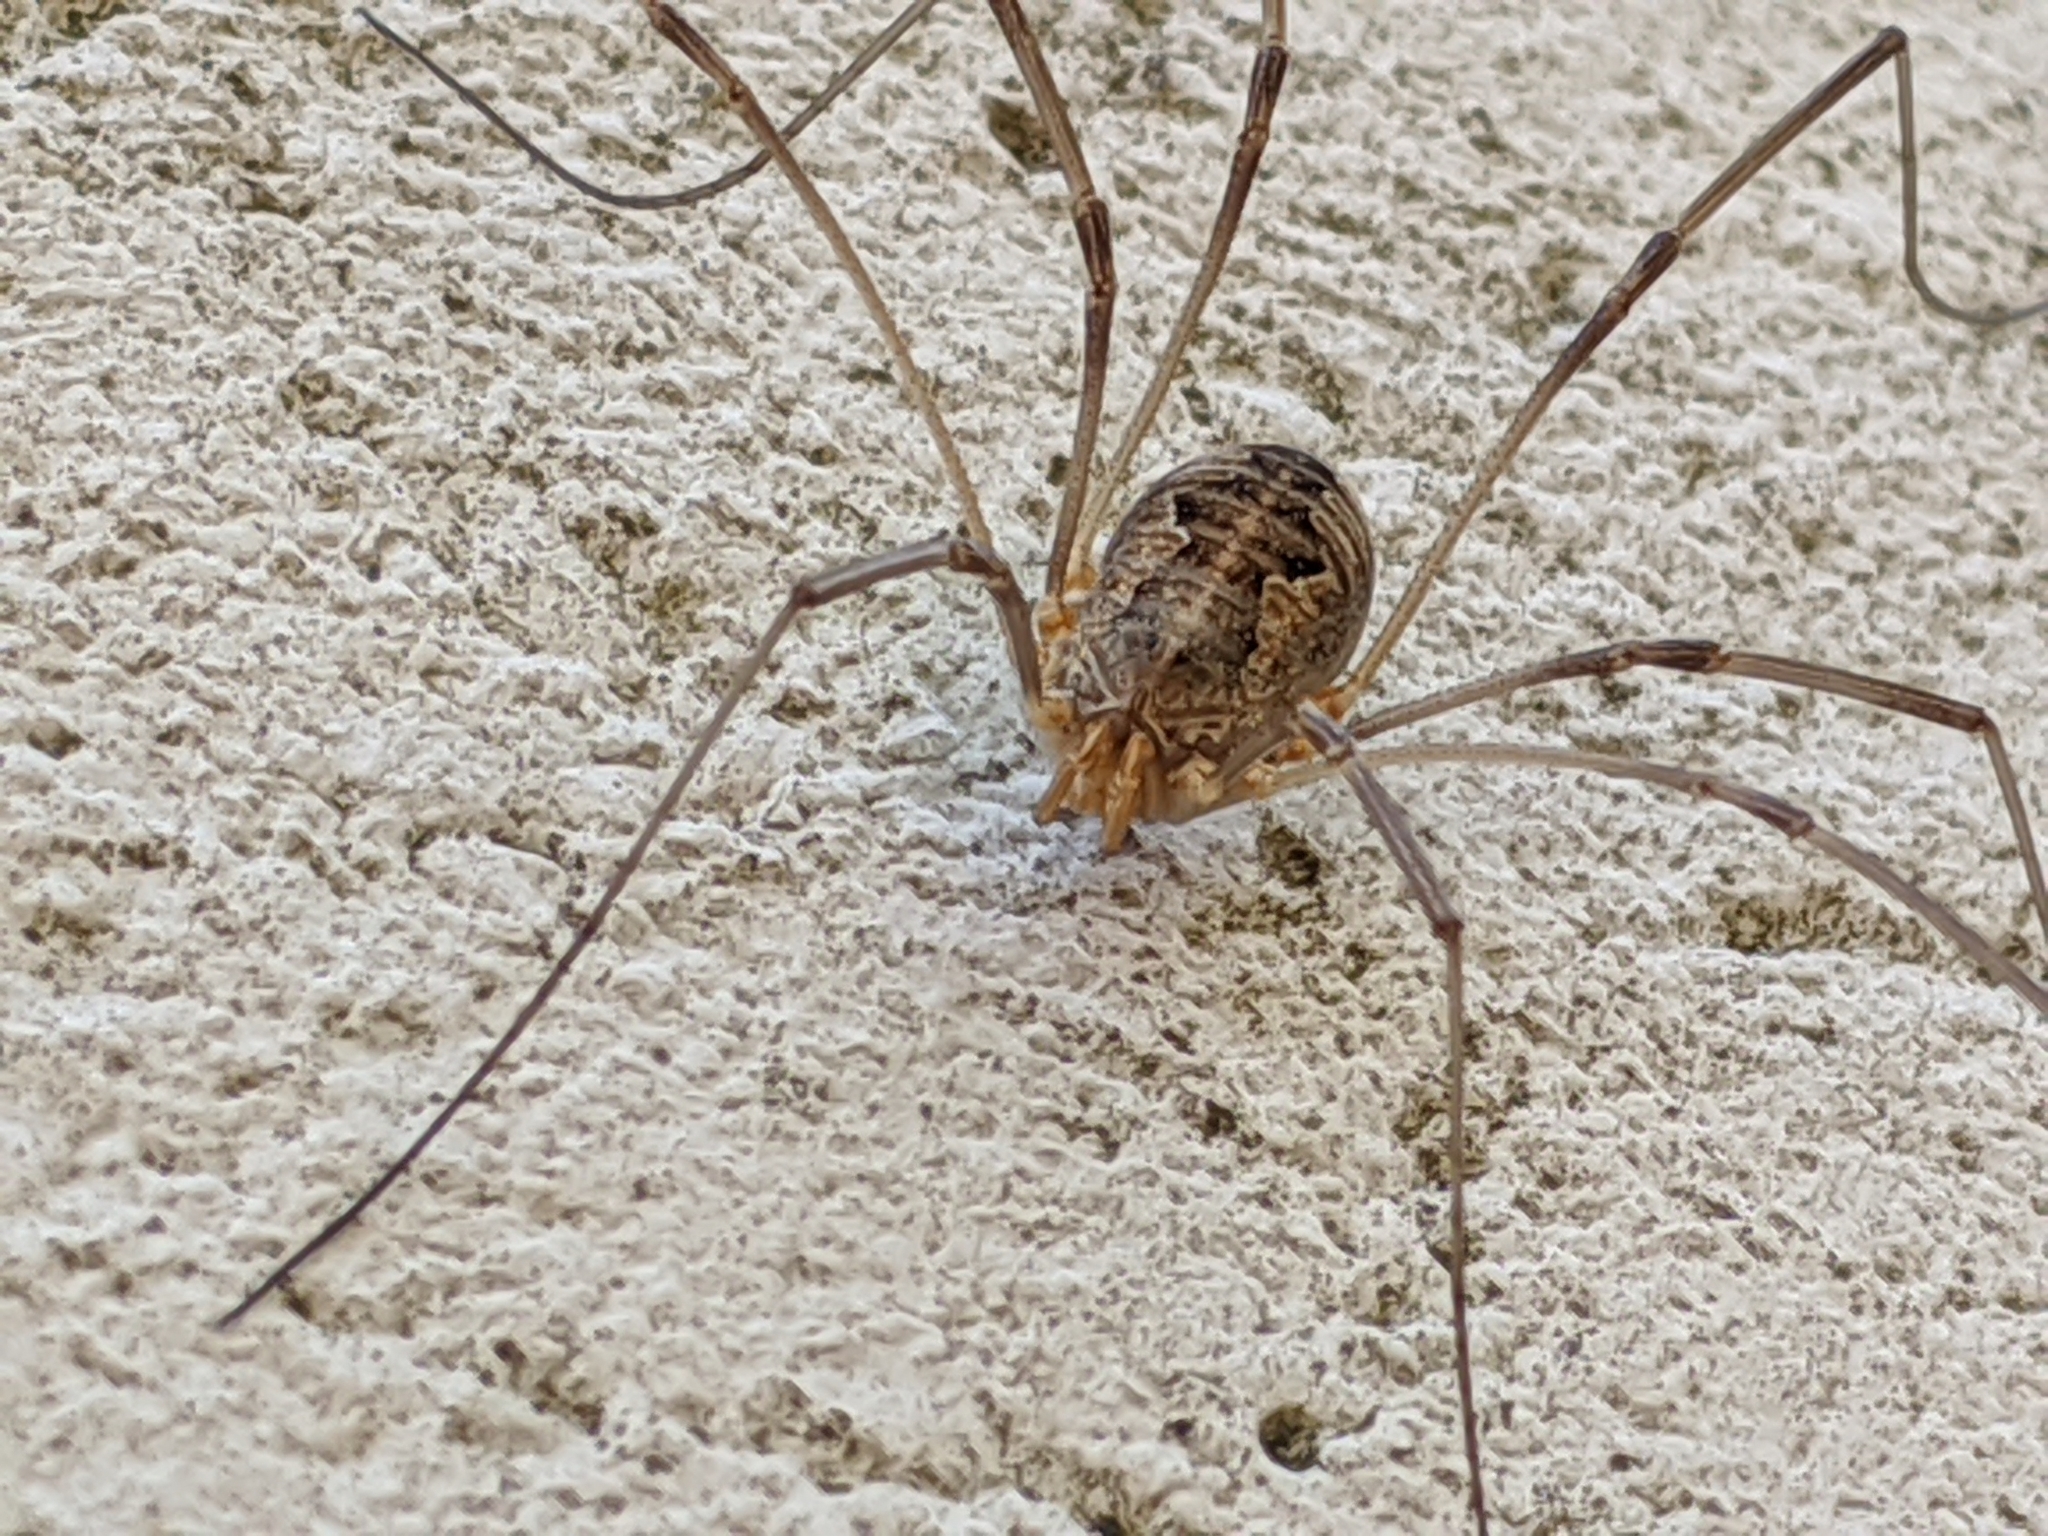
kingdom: Animalia
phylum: Arthropoda
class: Arachnida
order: Opiliones
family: Phalangiidae
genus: Phalangium
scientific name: Phalangium opilio
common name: Daddy longleg
